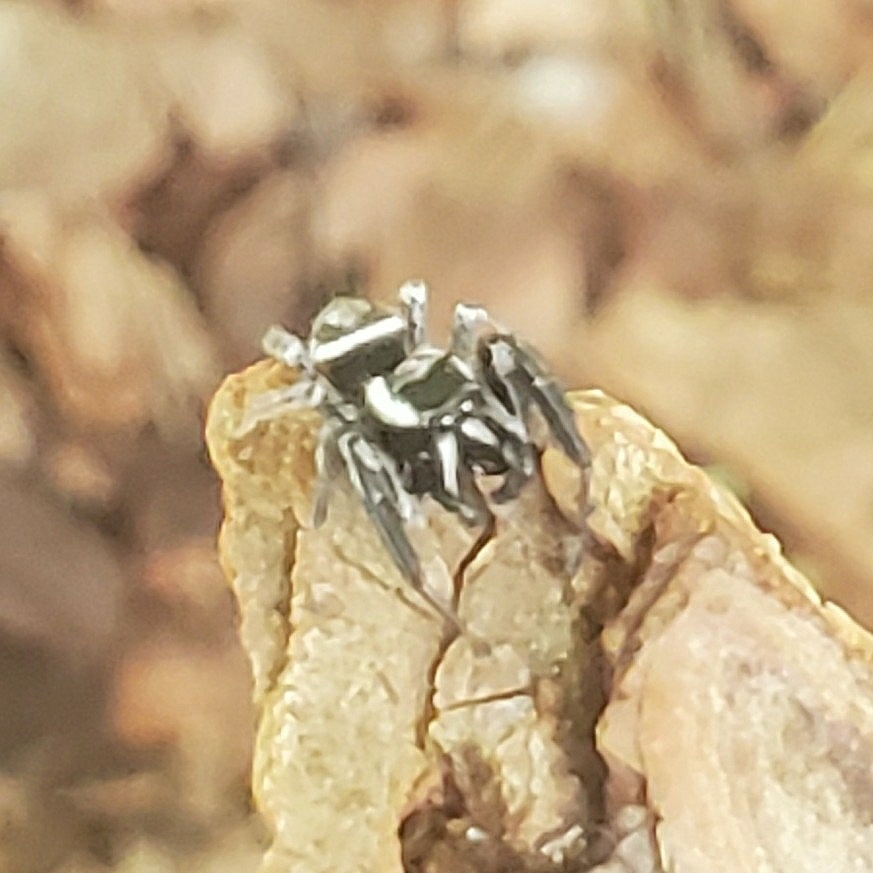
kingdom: Animalia
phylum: Arthropoda
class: Arachnida
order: Araneae
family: Salticidae
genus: Paraphidippus
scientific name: Paraphidippus aurantius
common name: Jumping spiders
